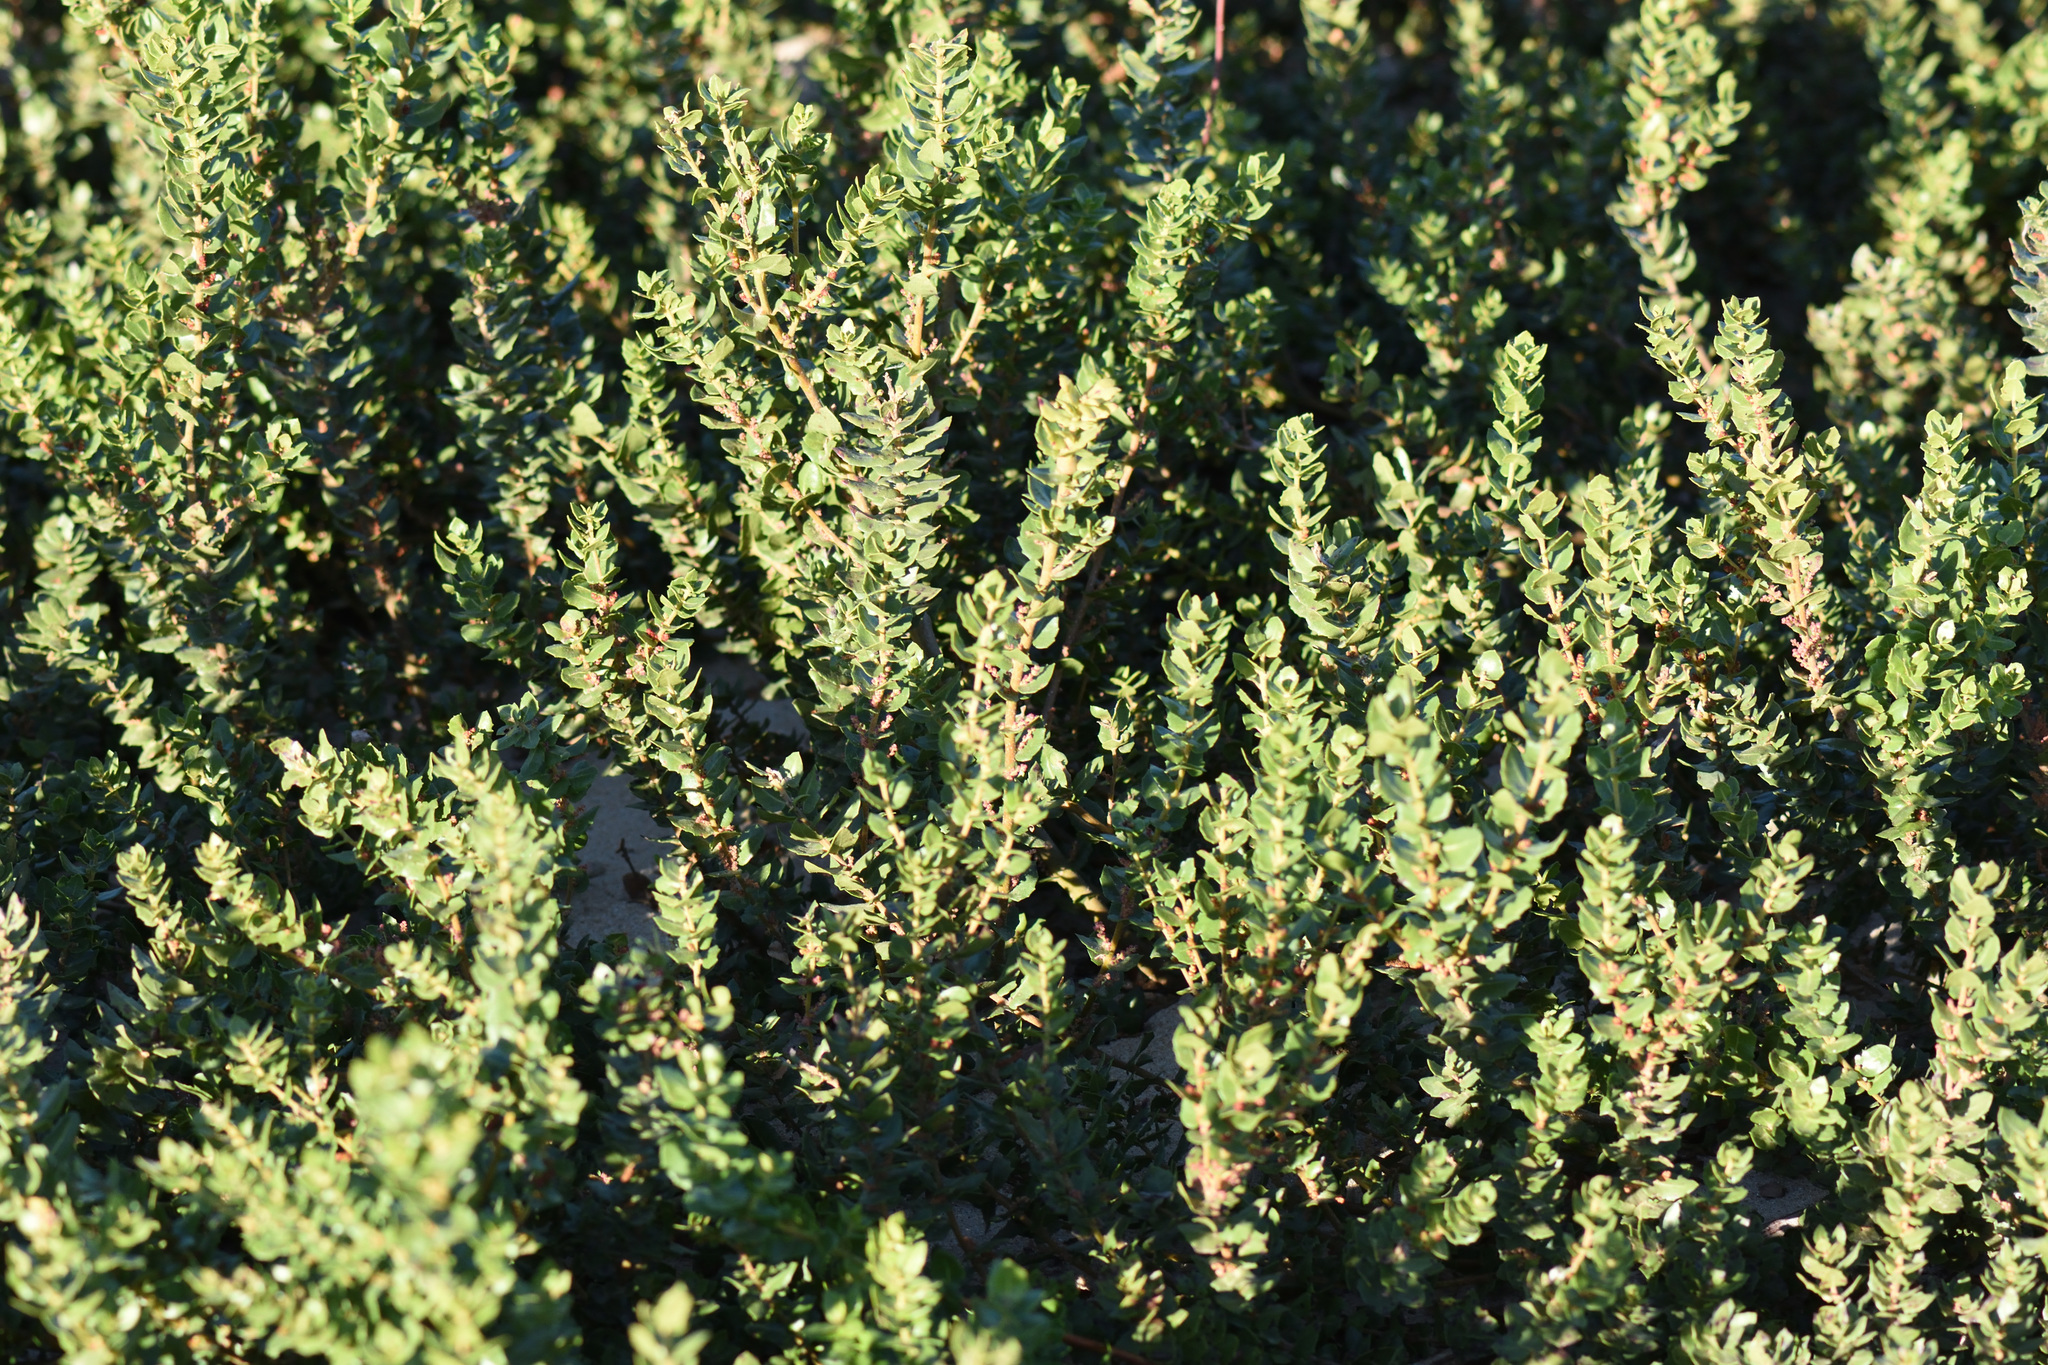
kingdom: Plantae
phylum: Tracheophyta
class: Magnoliopsida
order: Fagales
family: Myricaceae
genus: Morella
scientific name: Morella cordifolia
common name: Waxberry
